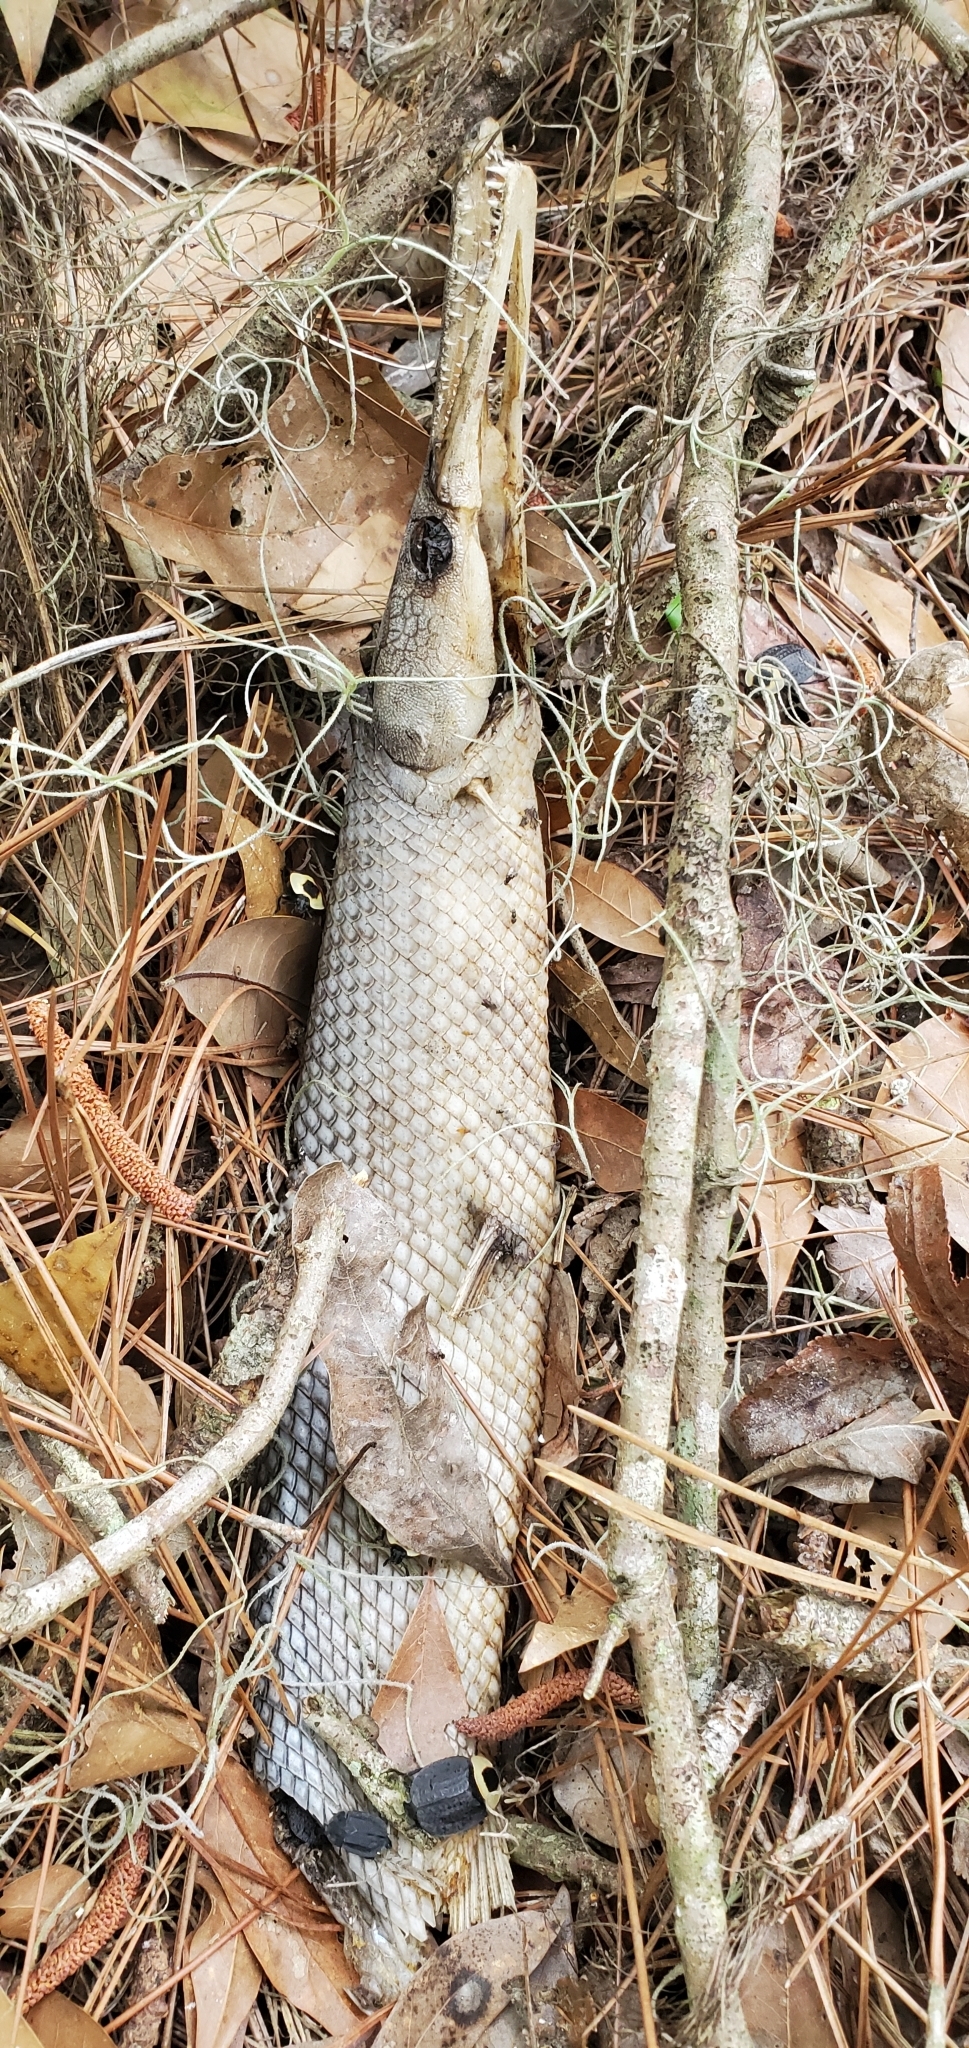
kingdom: Animalia
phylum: Chordata
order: Lepisosteiformes
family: Lepisosteidae
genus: Lepisosteus
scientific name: Lepisosteus platyrhincus
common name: Florida gar
